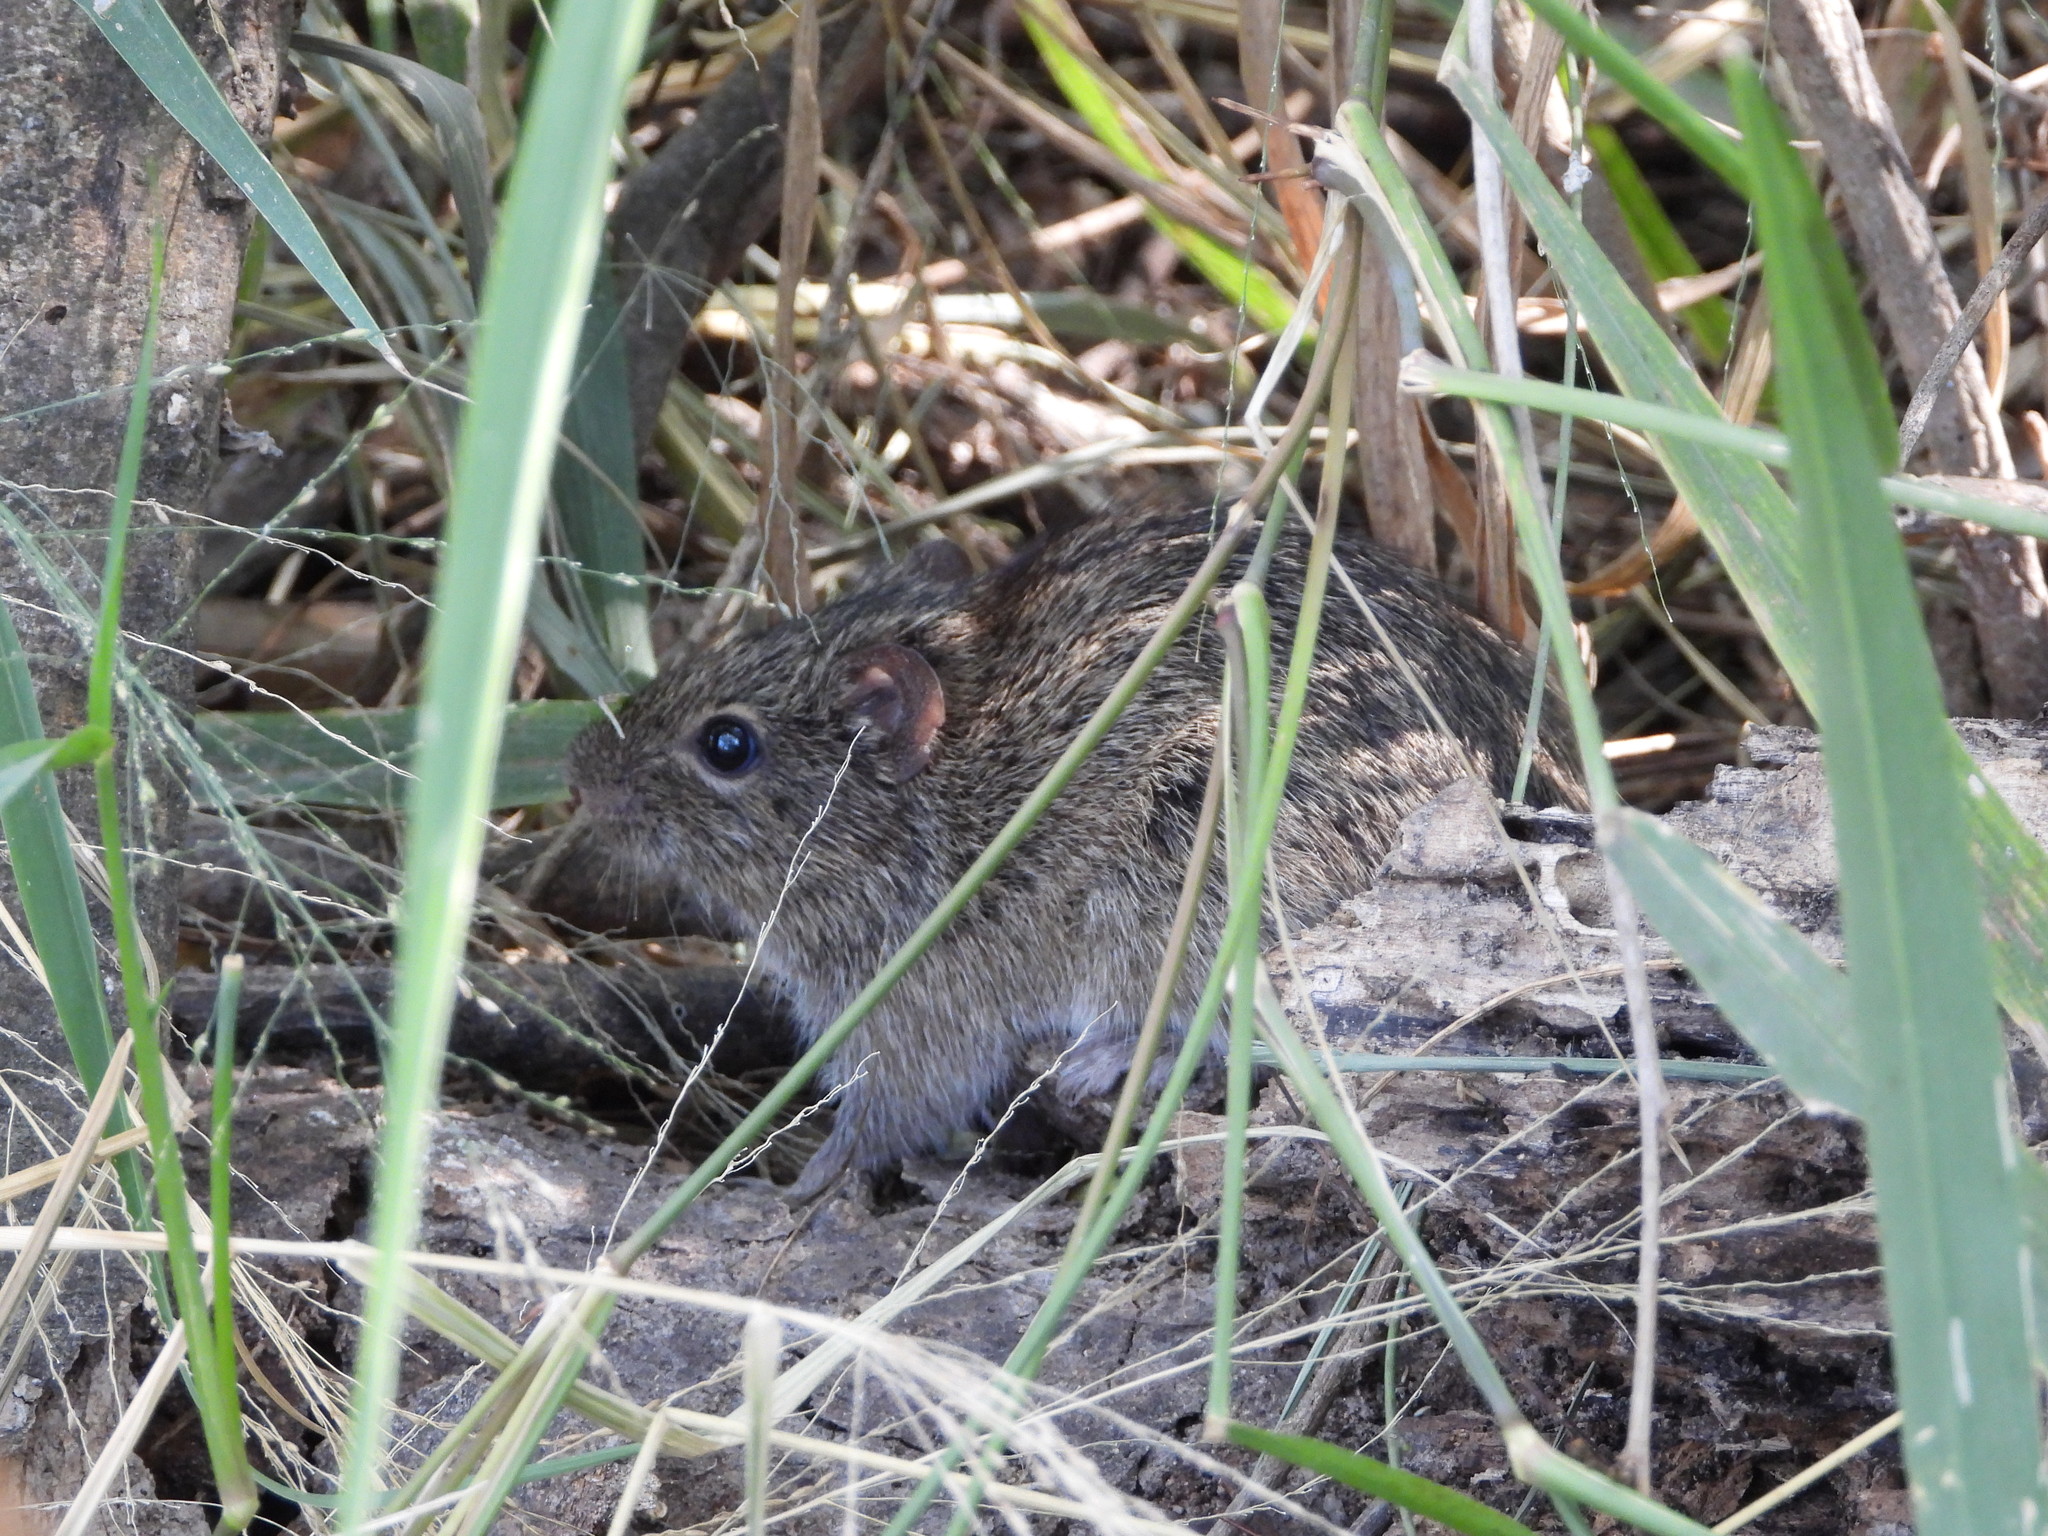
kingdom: Animalia
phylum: Chordata
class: Mammalia
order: Rodentia
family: Cricetidae
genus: Sigmodon
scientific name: Sigmodon hispidus
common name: Hispid cotton rat
